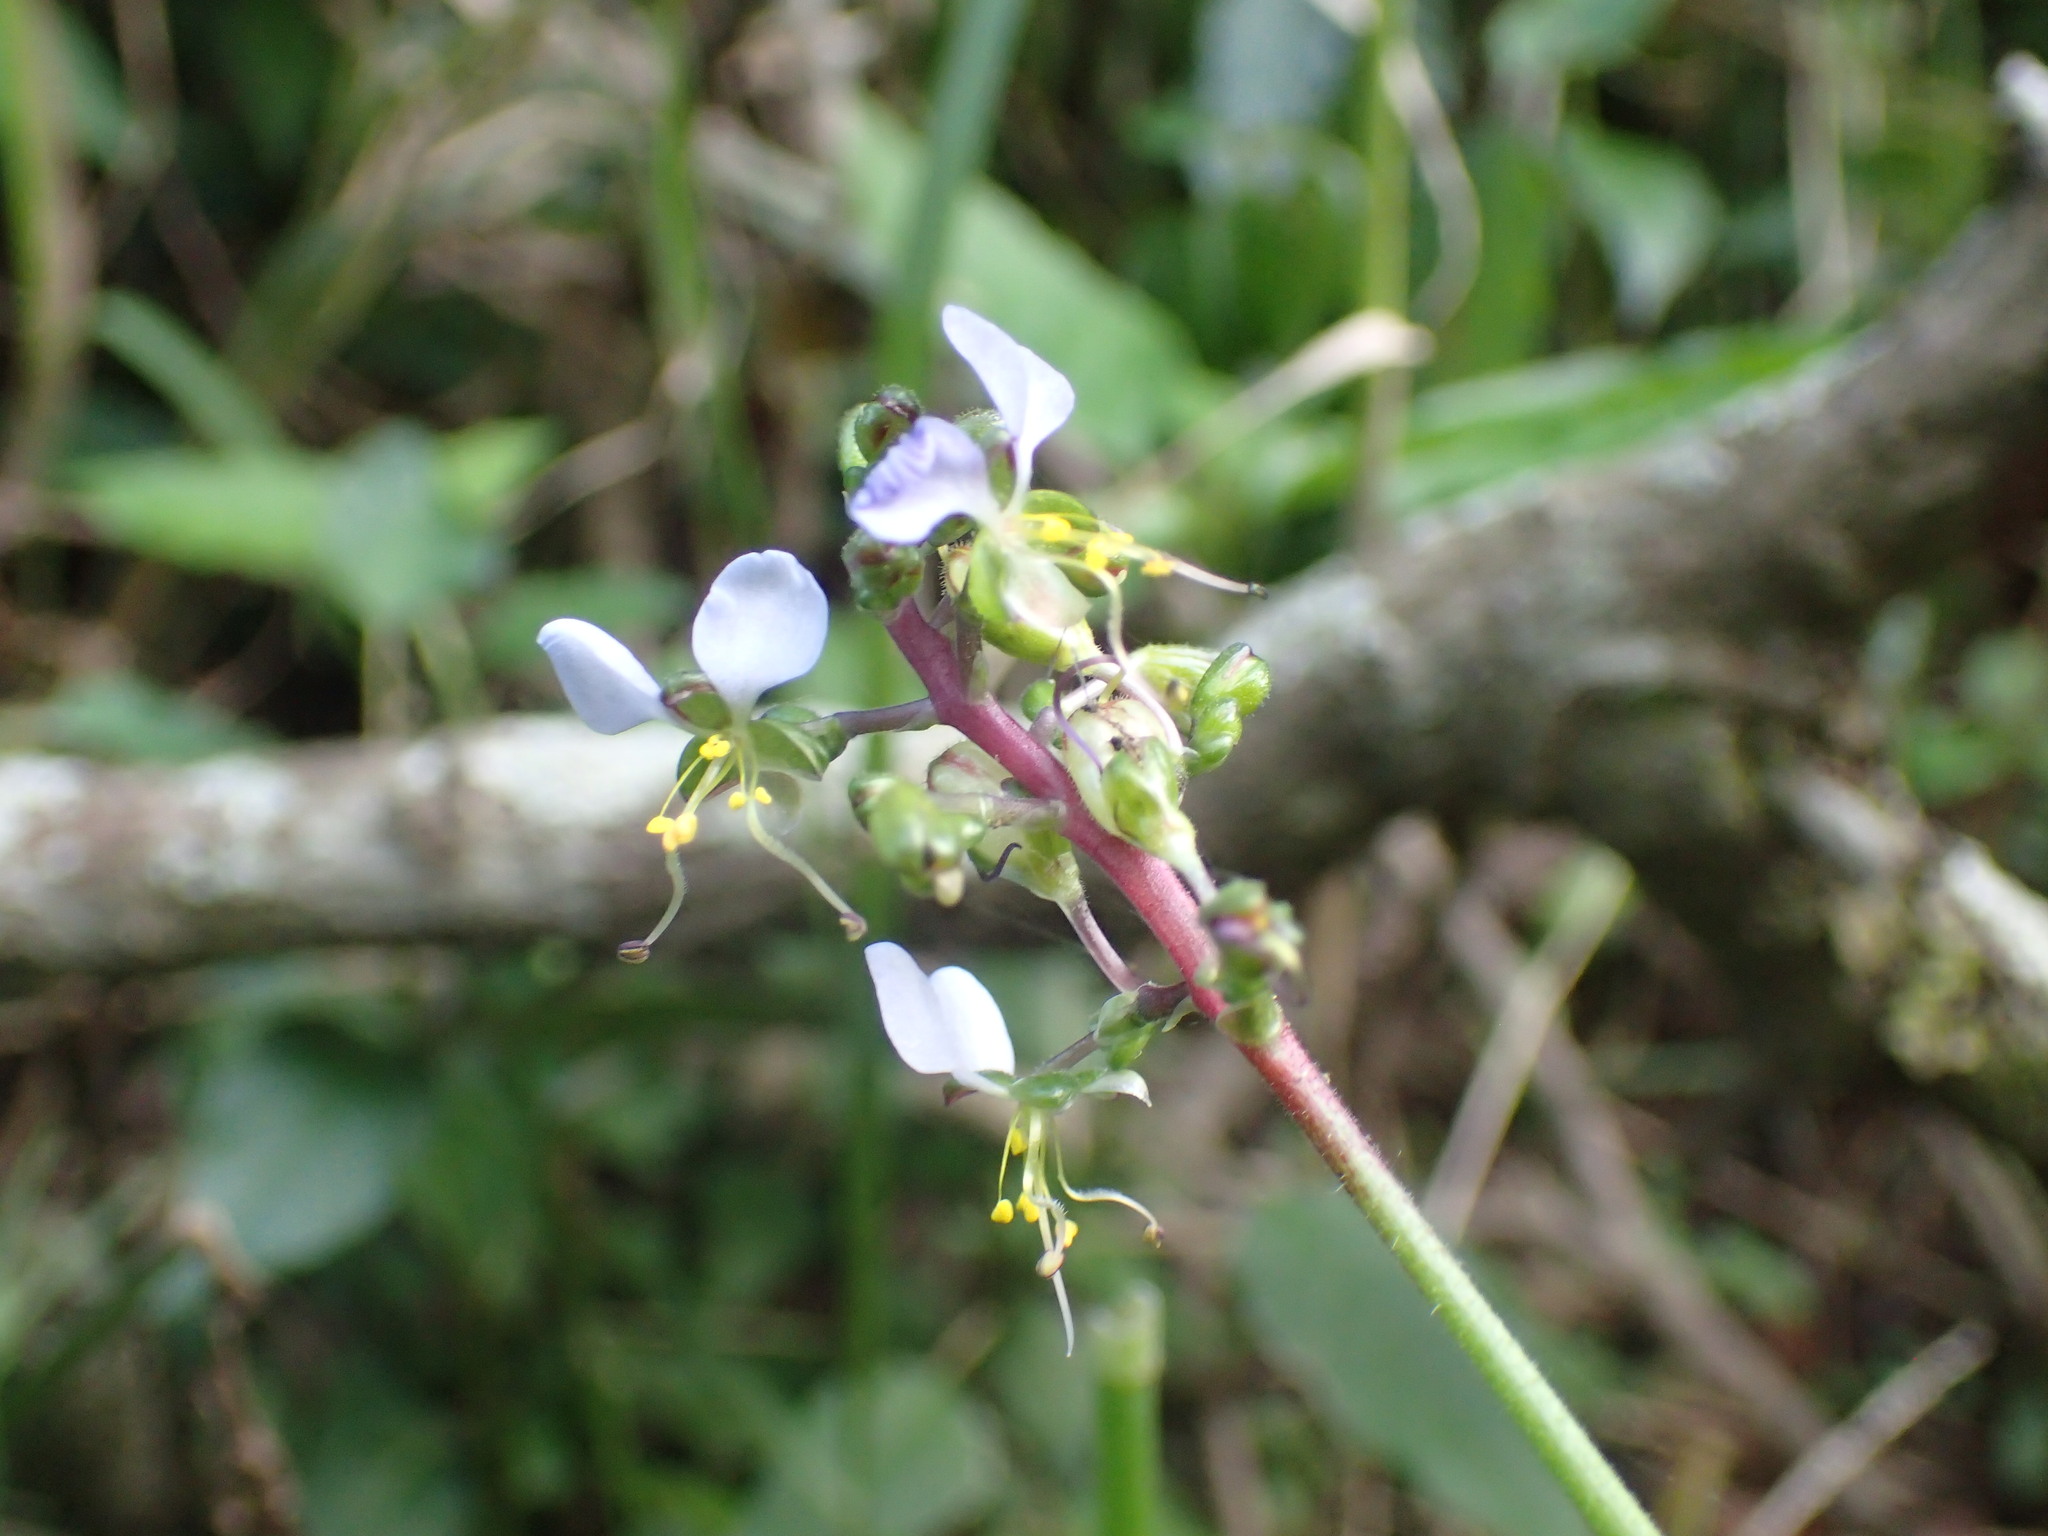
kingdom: Plantae
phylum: Tracheophyta
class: Liliopsida
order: Commelinales
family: Commelinaceae
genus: Aneilema
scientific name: Aneilema dregeanum
